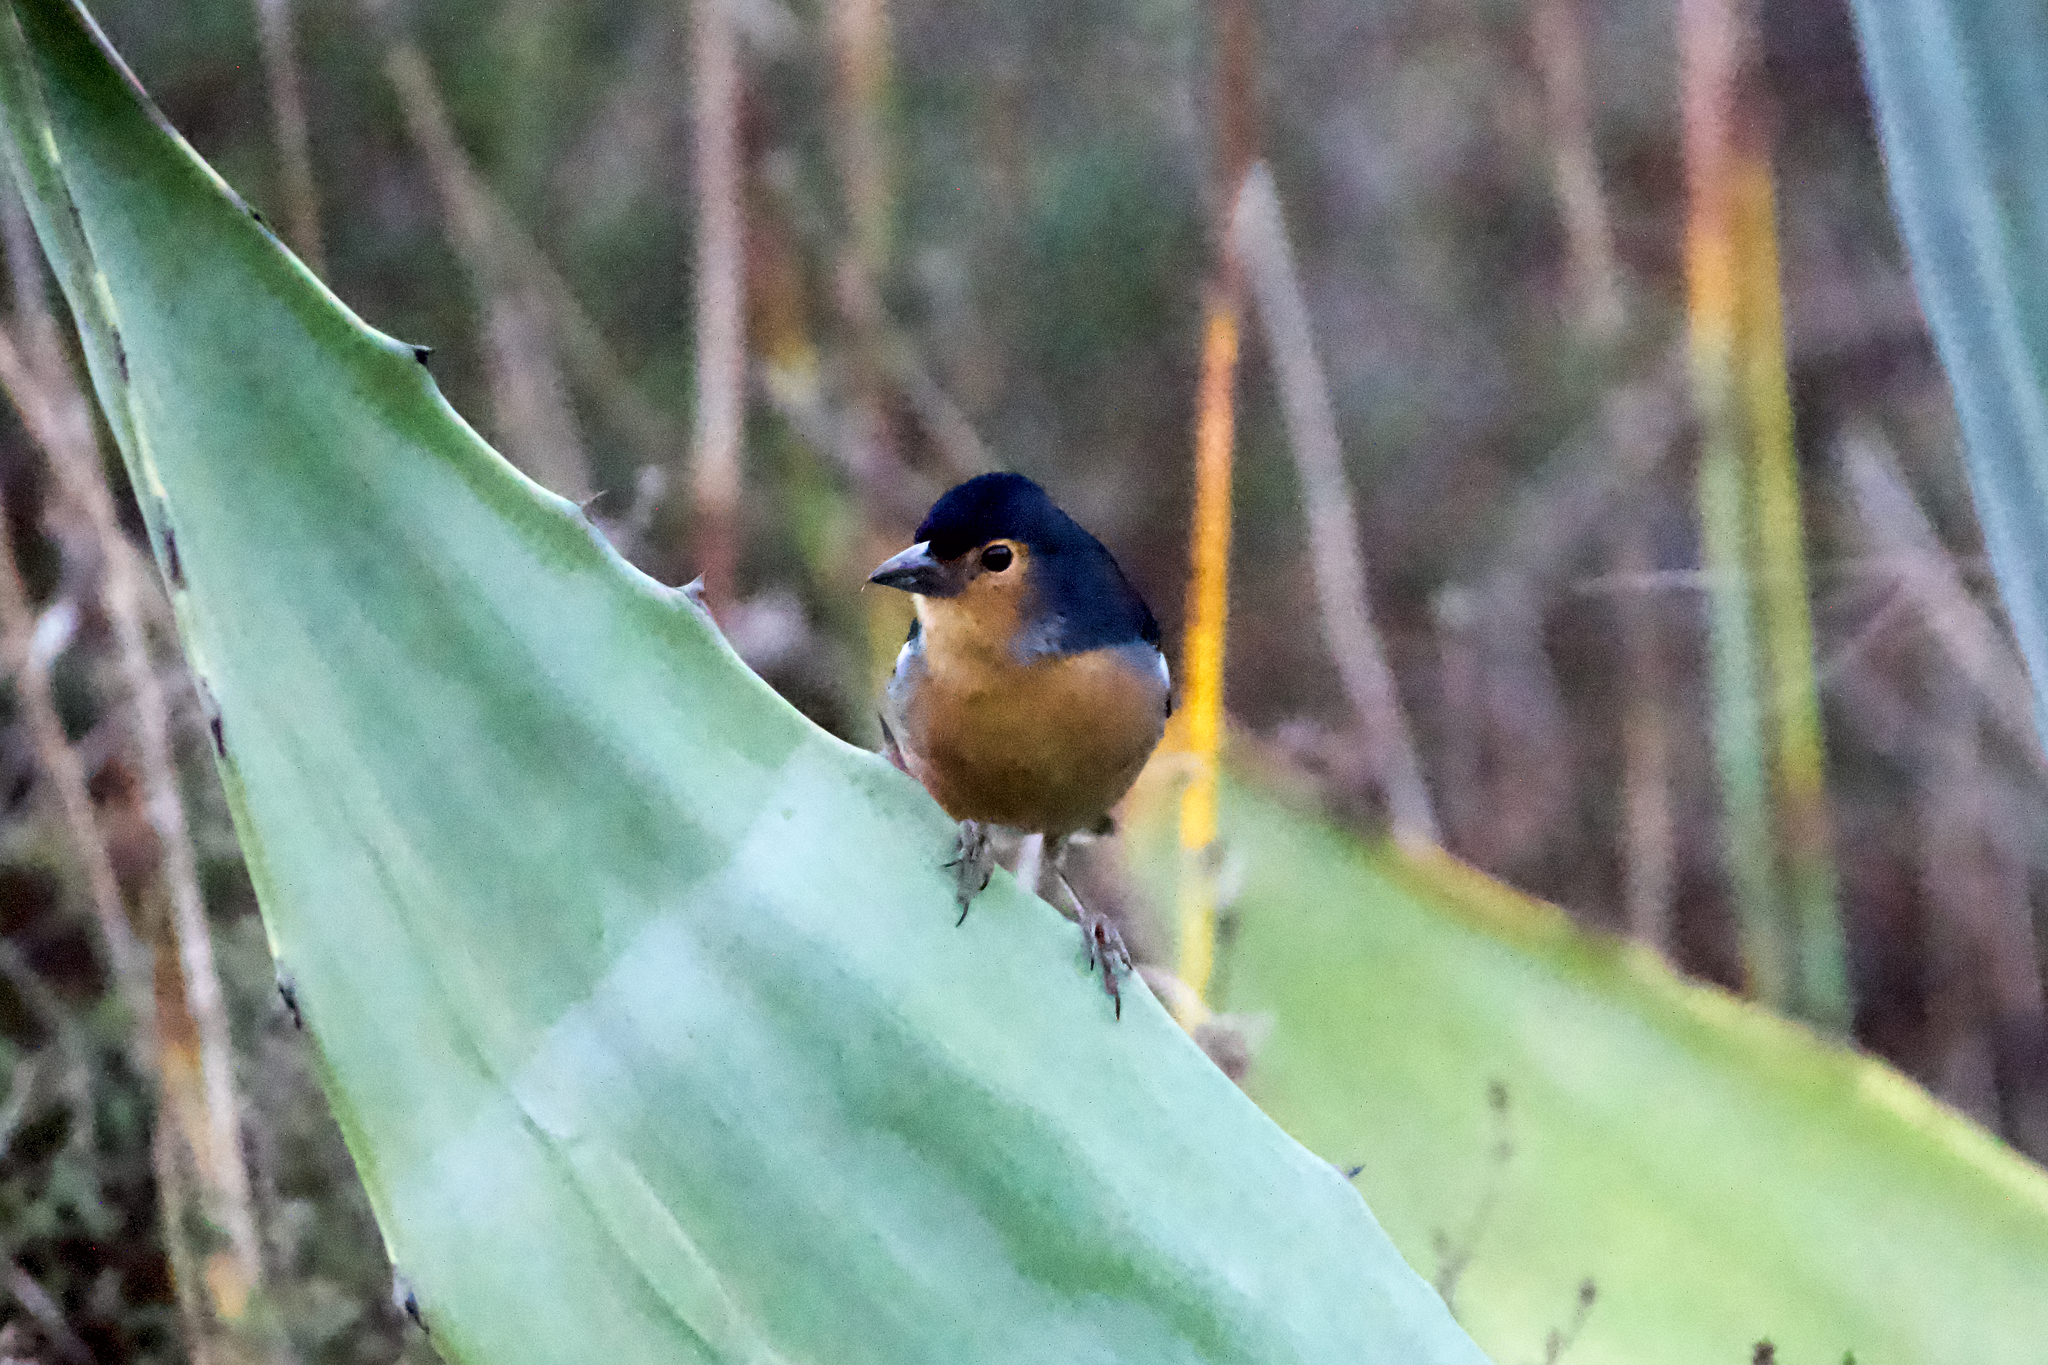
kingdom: Animalia
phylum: Chordata
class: Aves
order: Passeriformes
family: Fringillidae
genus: Fringilla
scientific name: Fringilla canariensis
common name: Canary islands chaffinch
